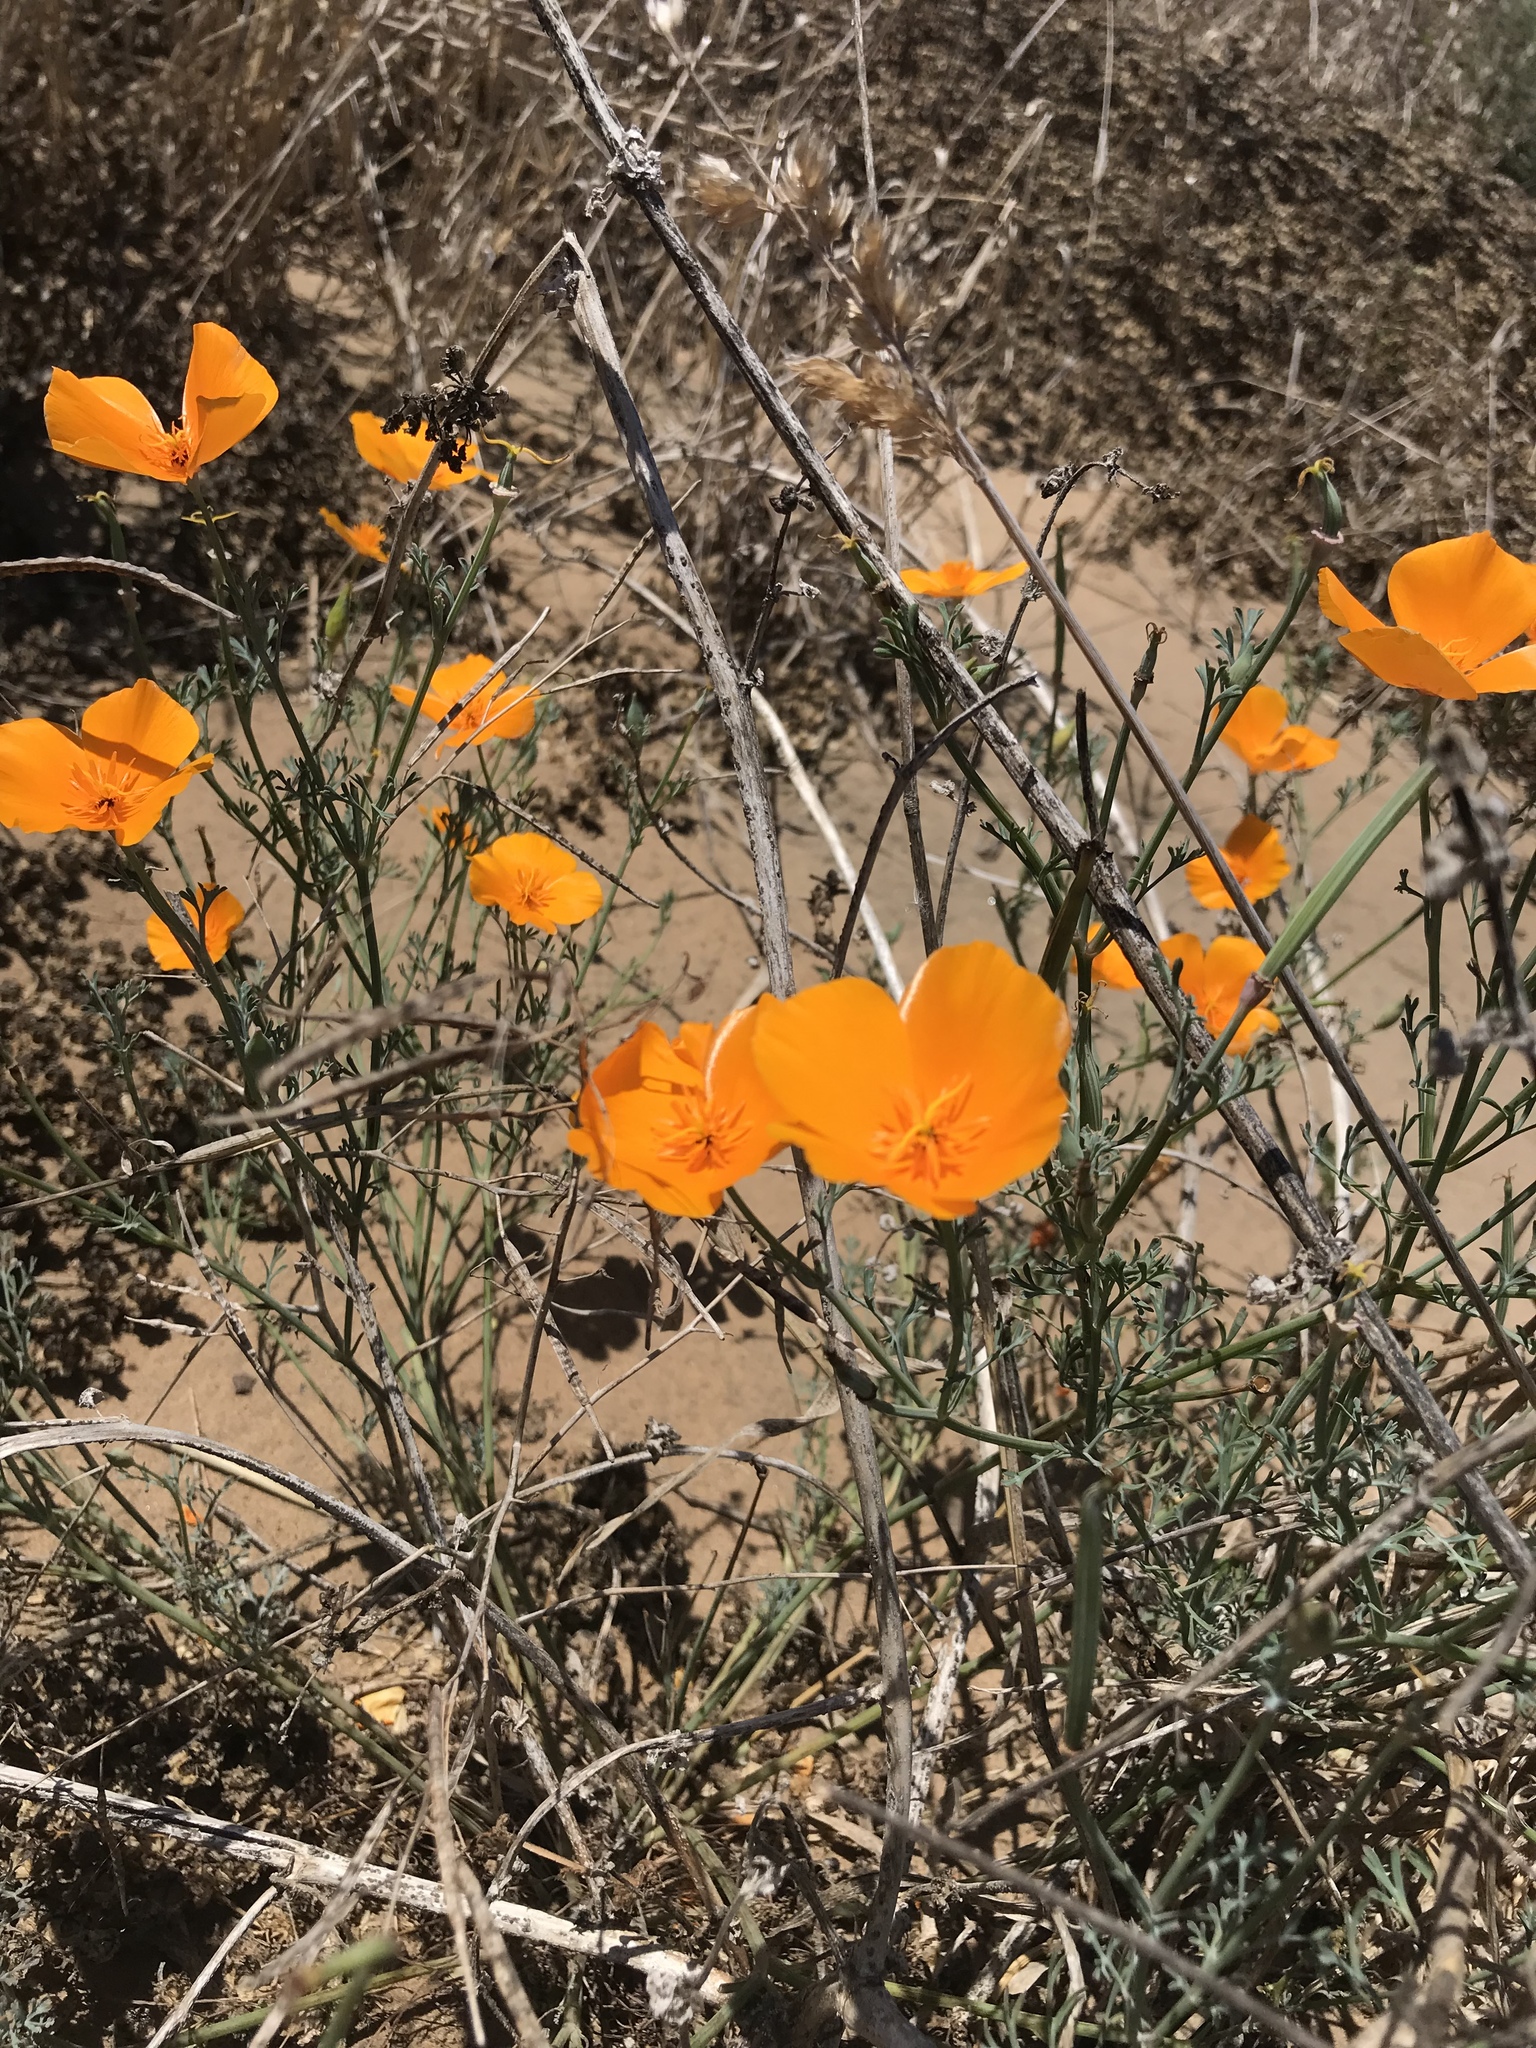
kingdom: Plantae
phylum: Tracheophyta
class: Magnoliopsida
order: Ranunculales
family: Papaveraceae
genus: Eschscholzia
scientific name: Eschscholzia californica
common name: California poppy
